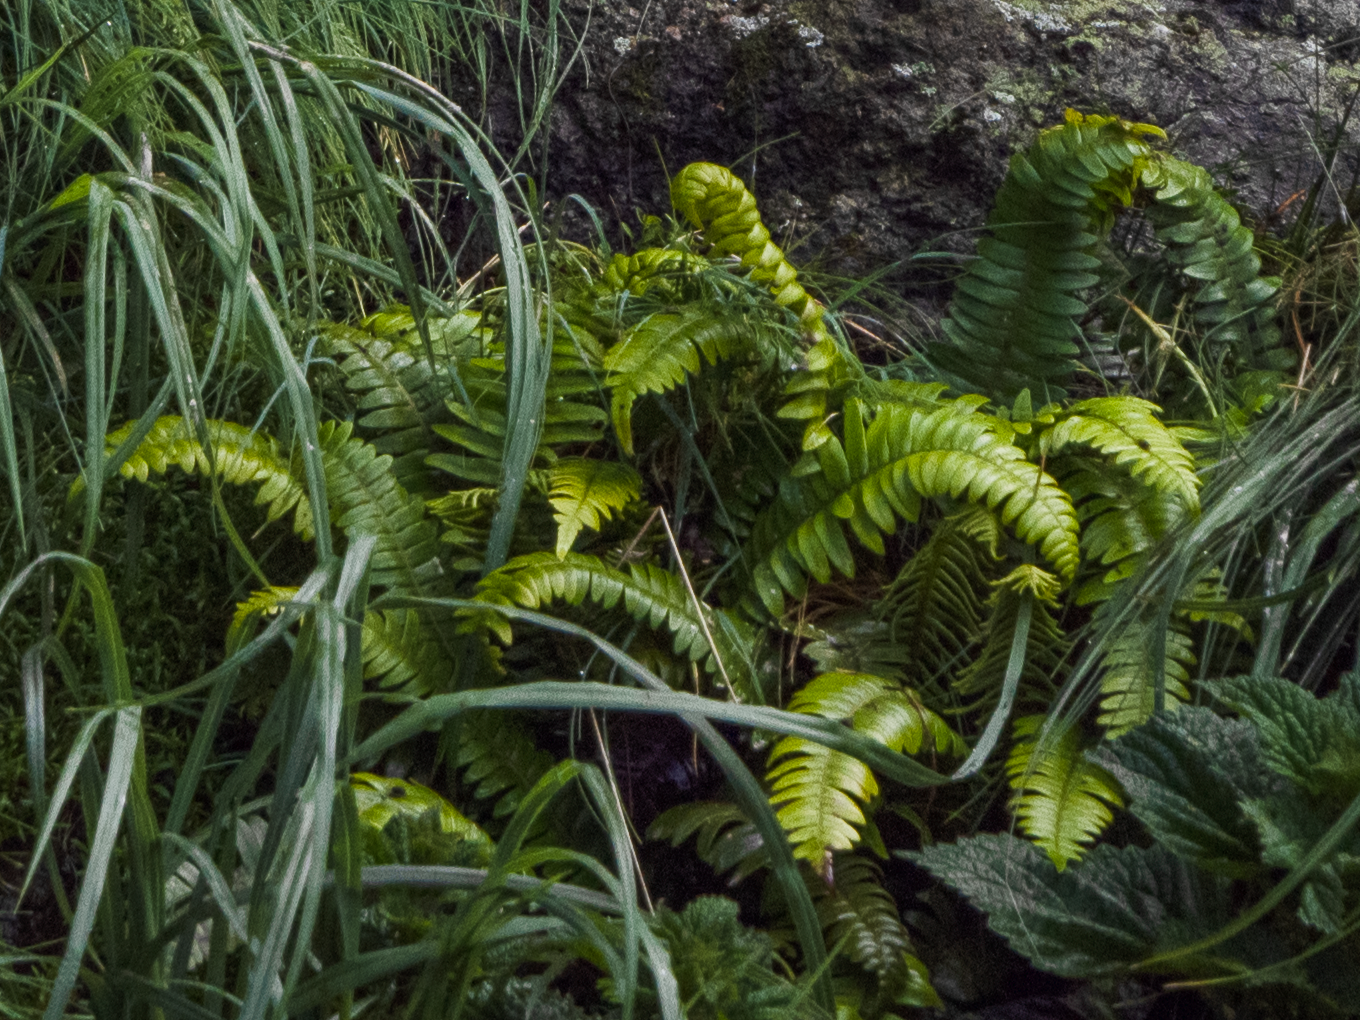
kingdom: Plantae
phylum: Tracheophyta
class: Polypodiopsida
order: Polypodiales
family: Blechnaceae
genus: Austroblechnum
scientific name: Austroblechnum durum
